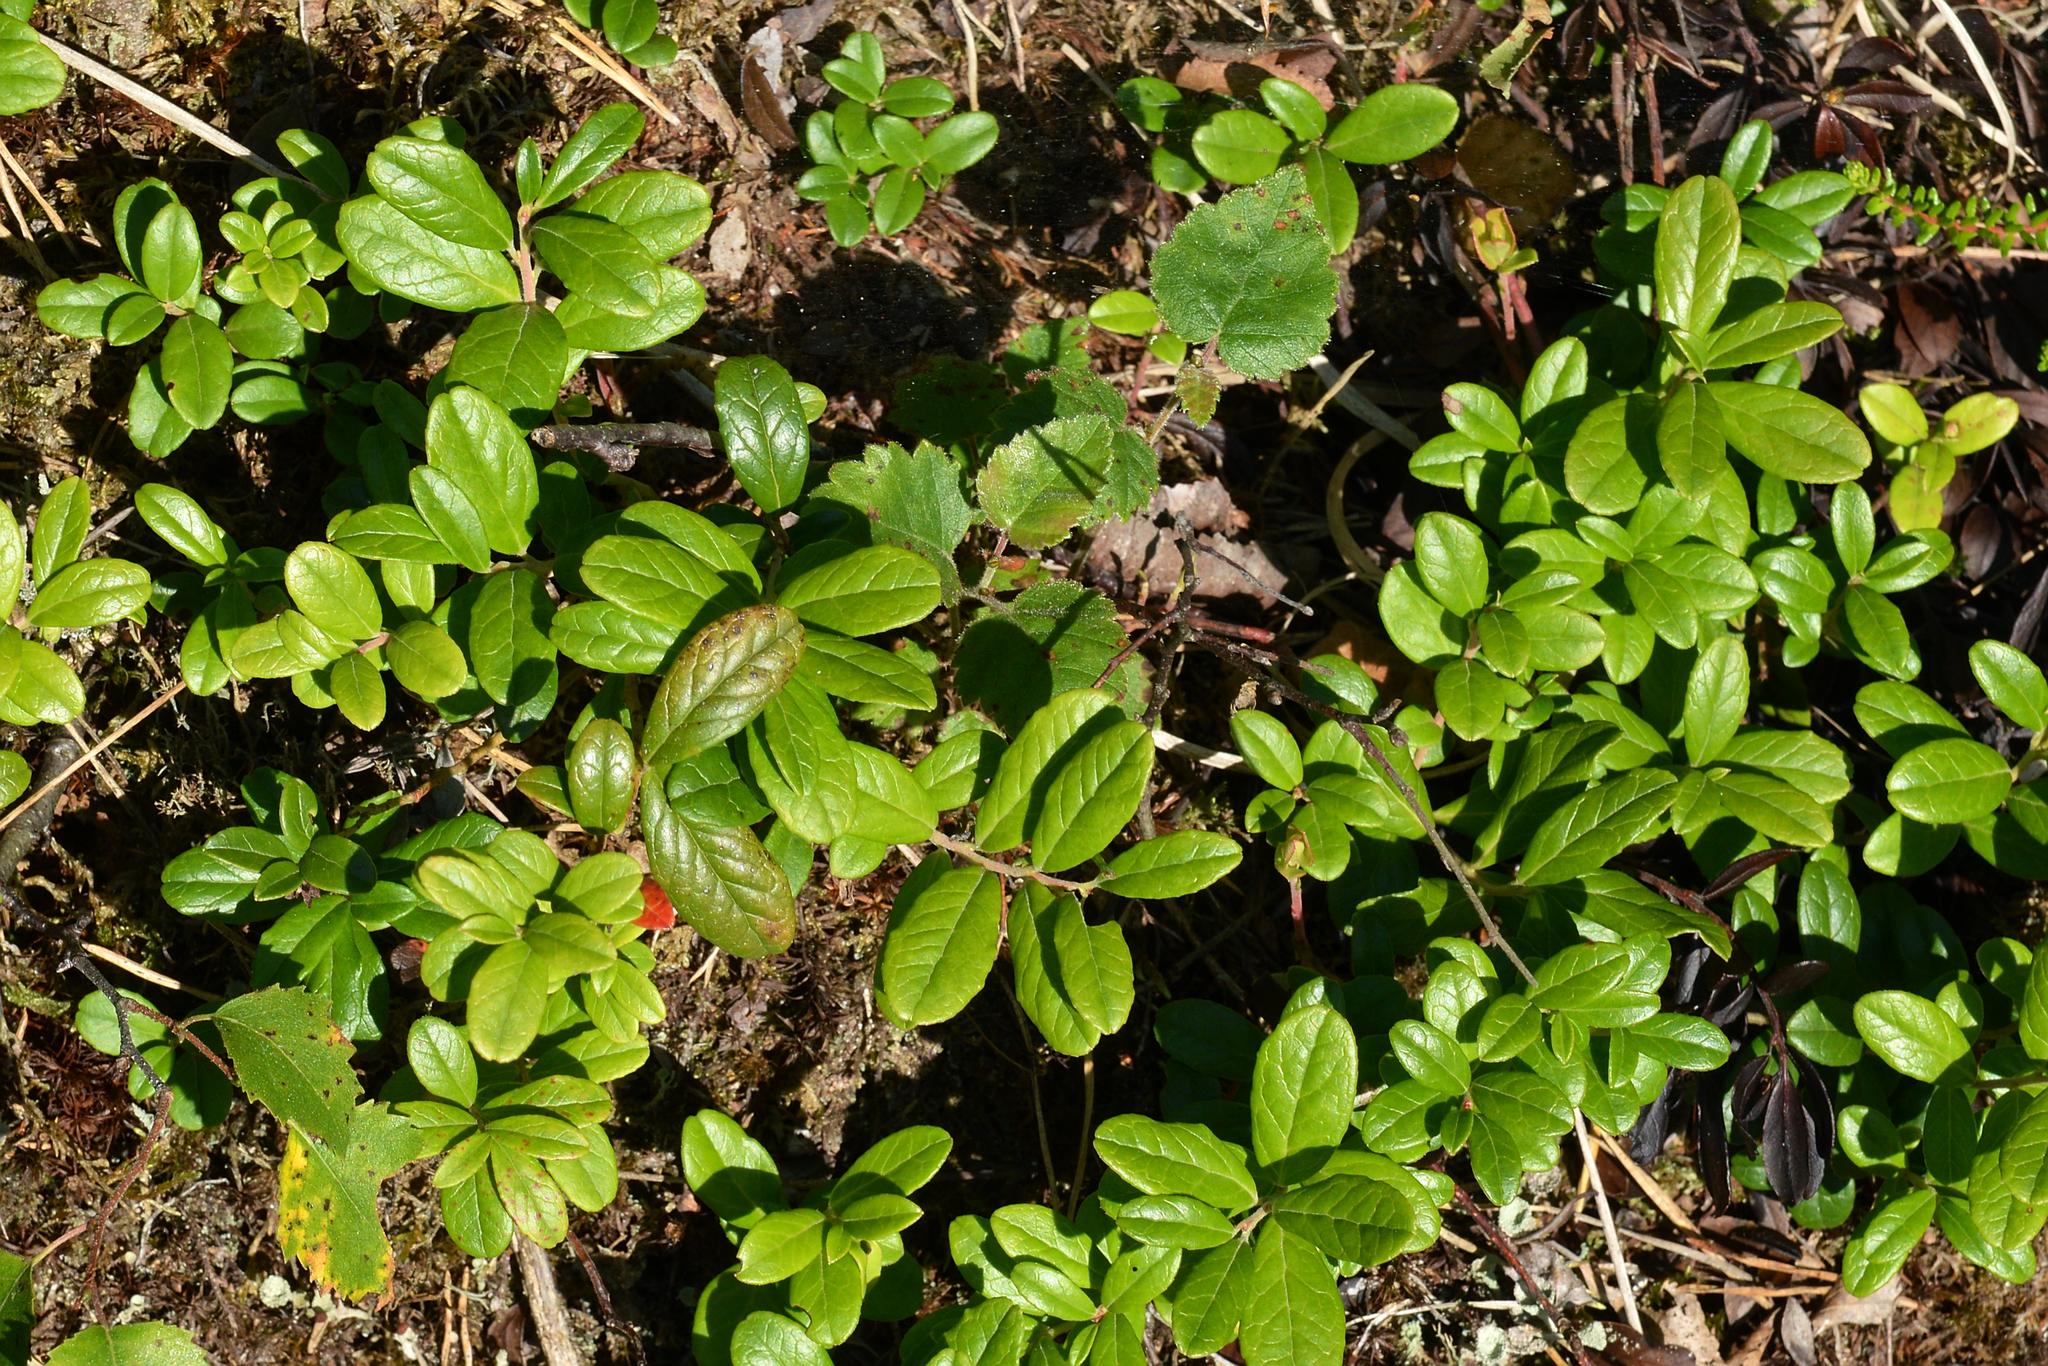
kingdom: Plantae
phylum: Tracheophyta
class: Magnoliopsida
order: Ericales
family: Ericaceae
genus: Vaccinium
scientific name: Vaccinium vitis-idaea
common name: Cowberry
